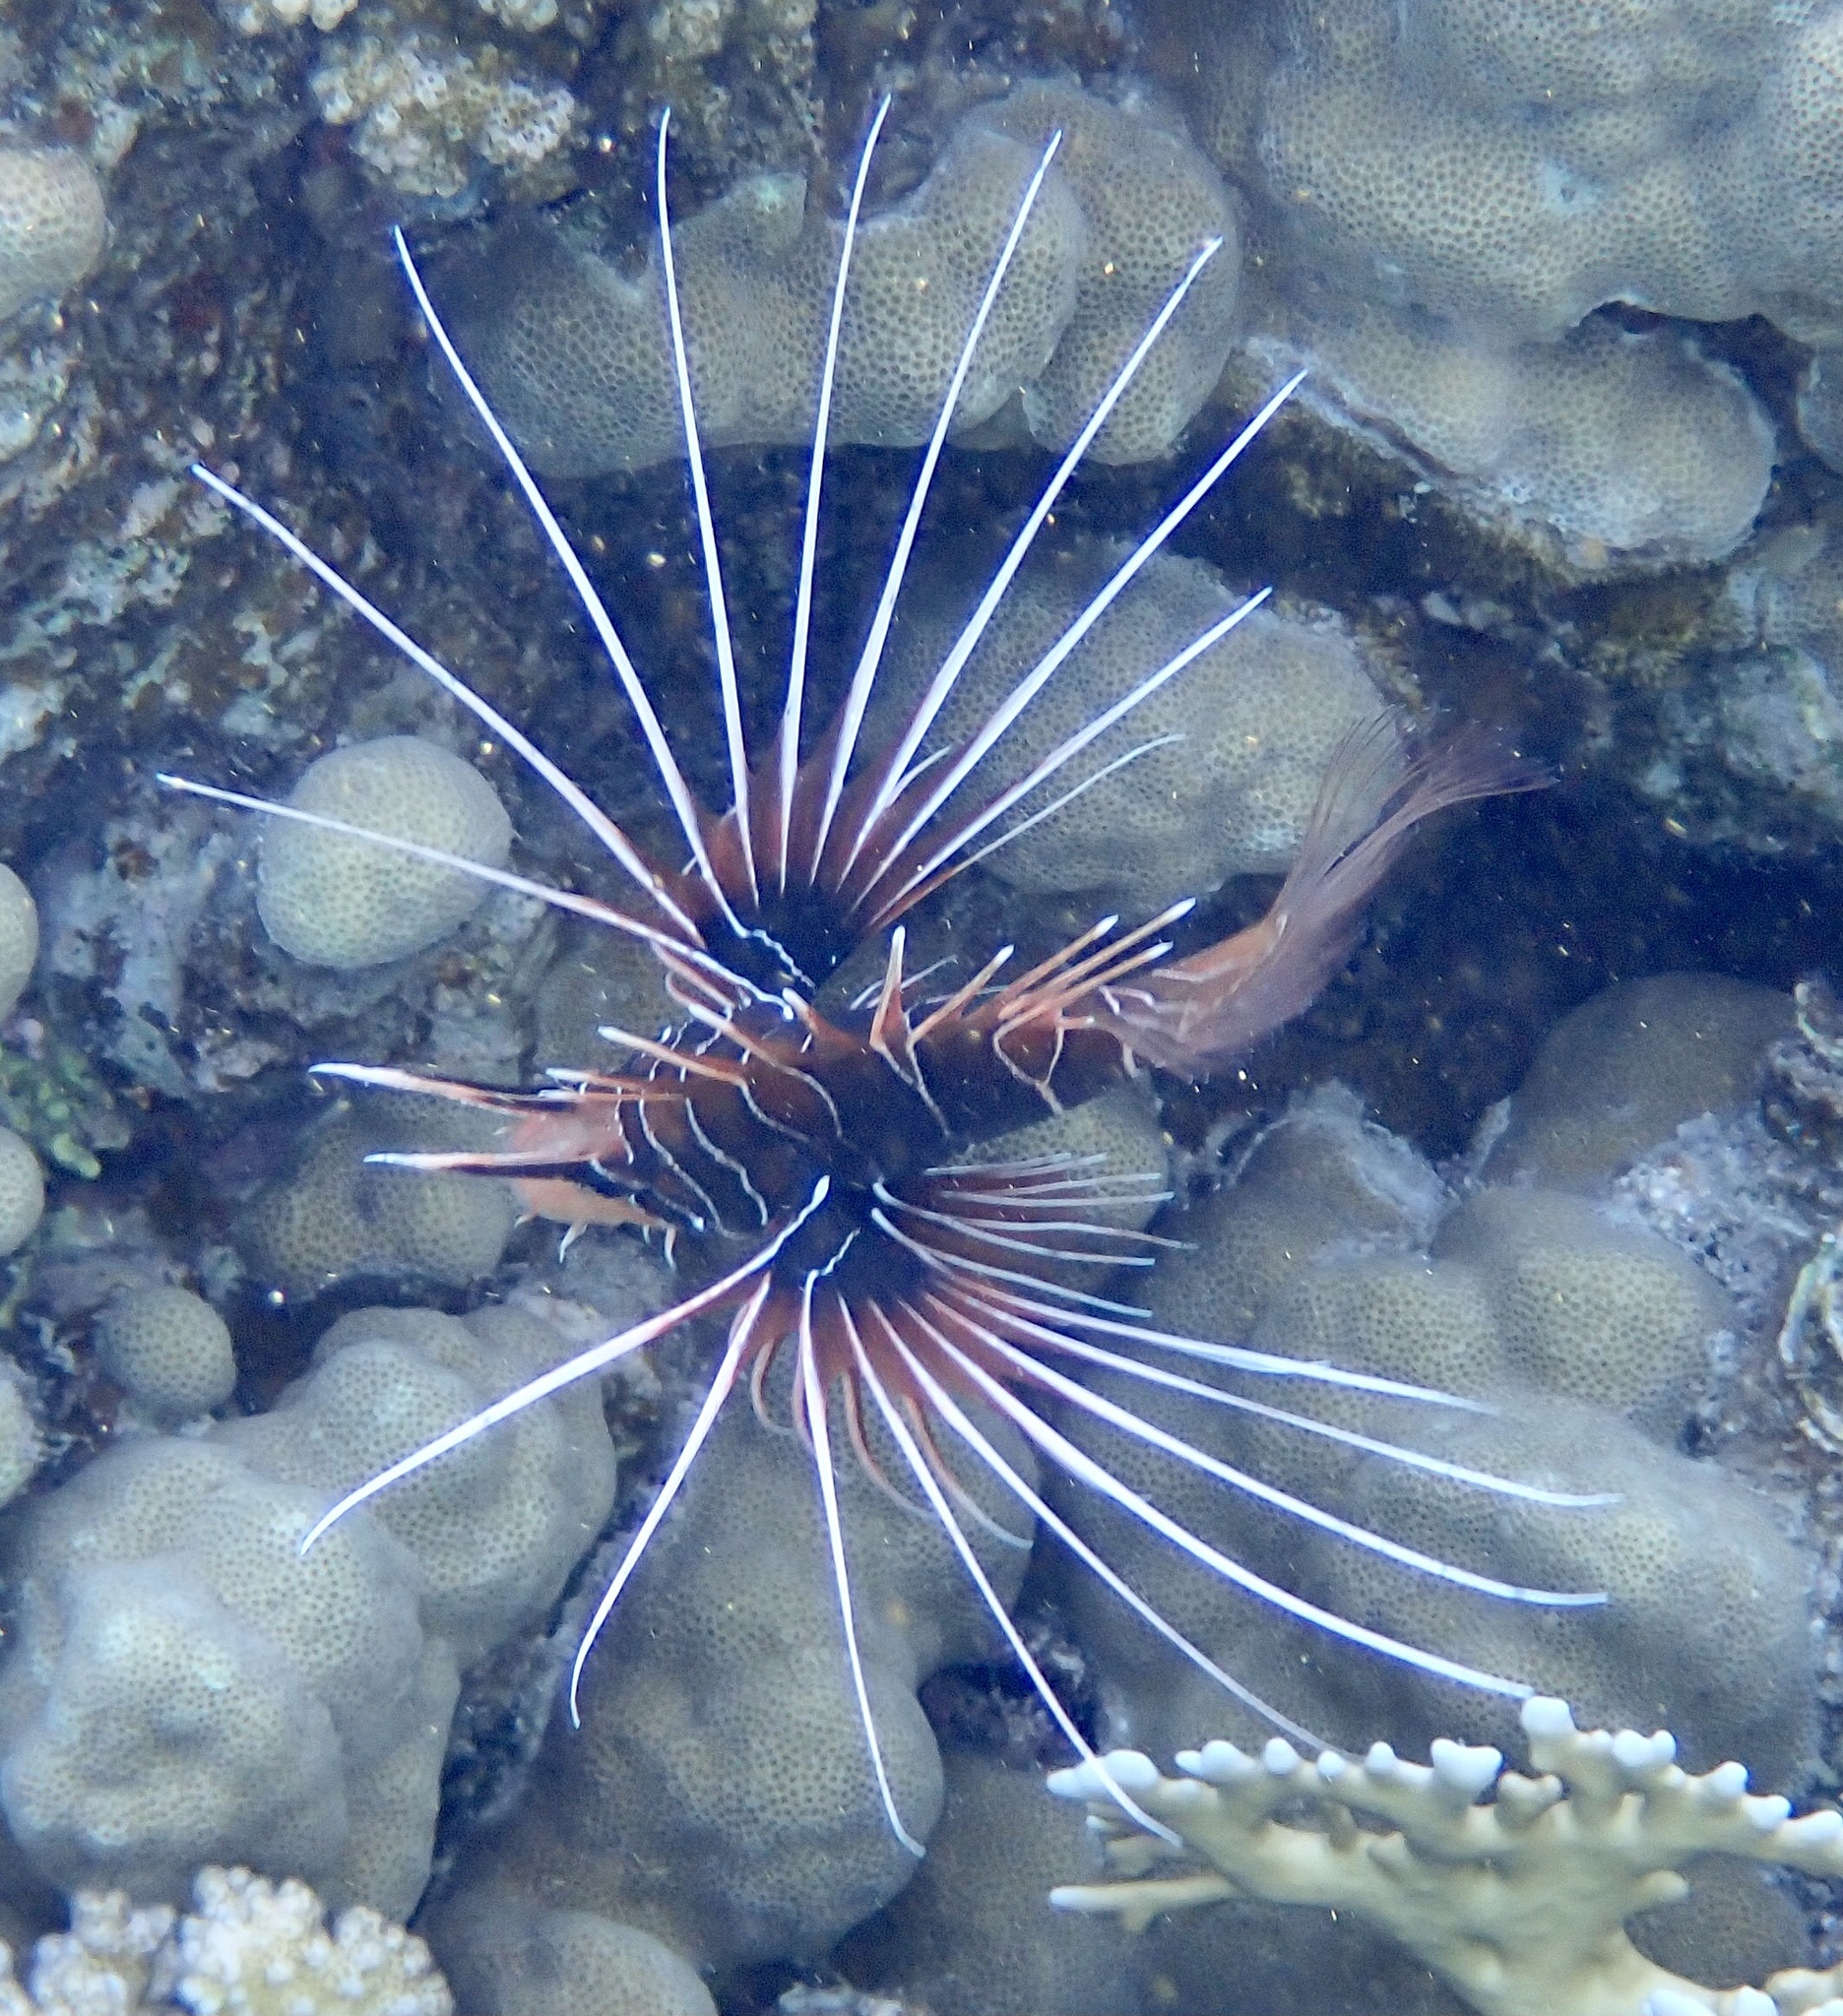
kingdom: Animalia
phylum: Chordata
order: Scorpaeniformes
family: Scorpaenidae
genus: Pterois
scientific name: Pterois cincta
